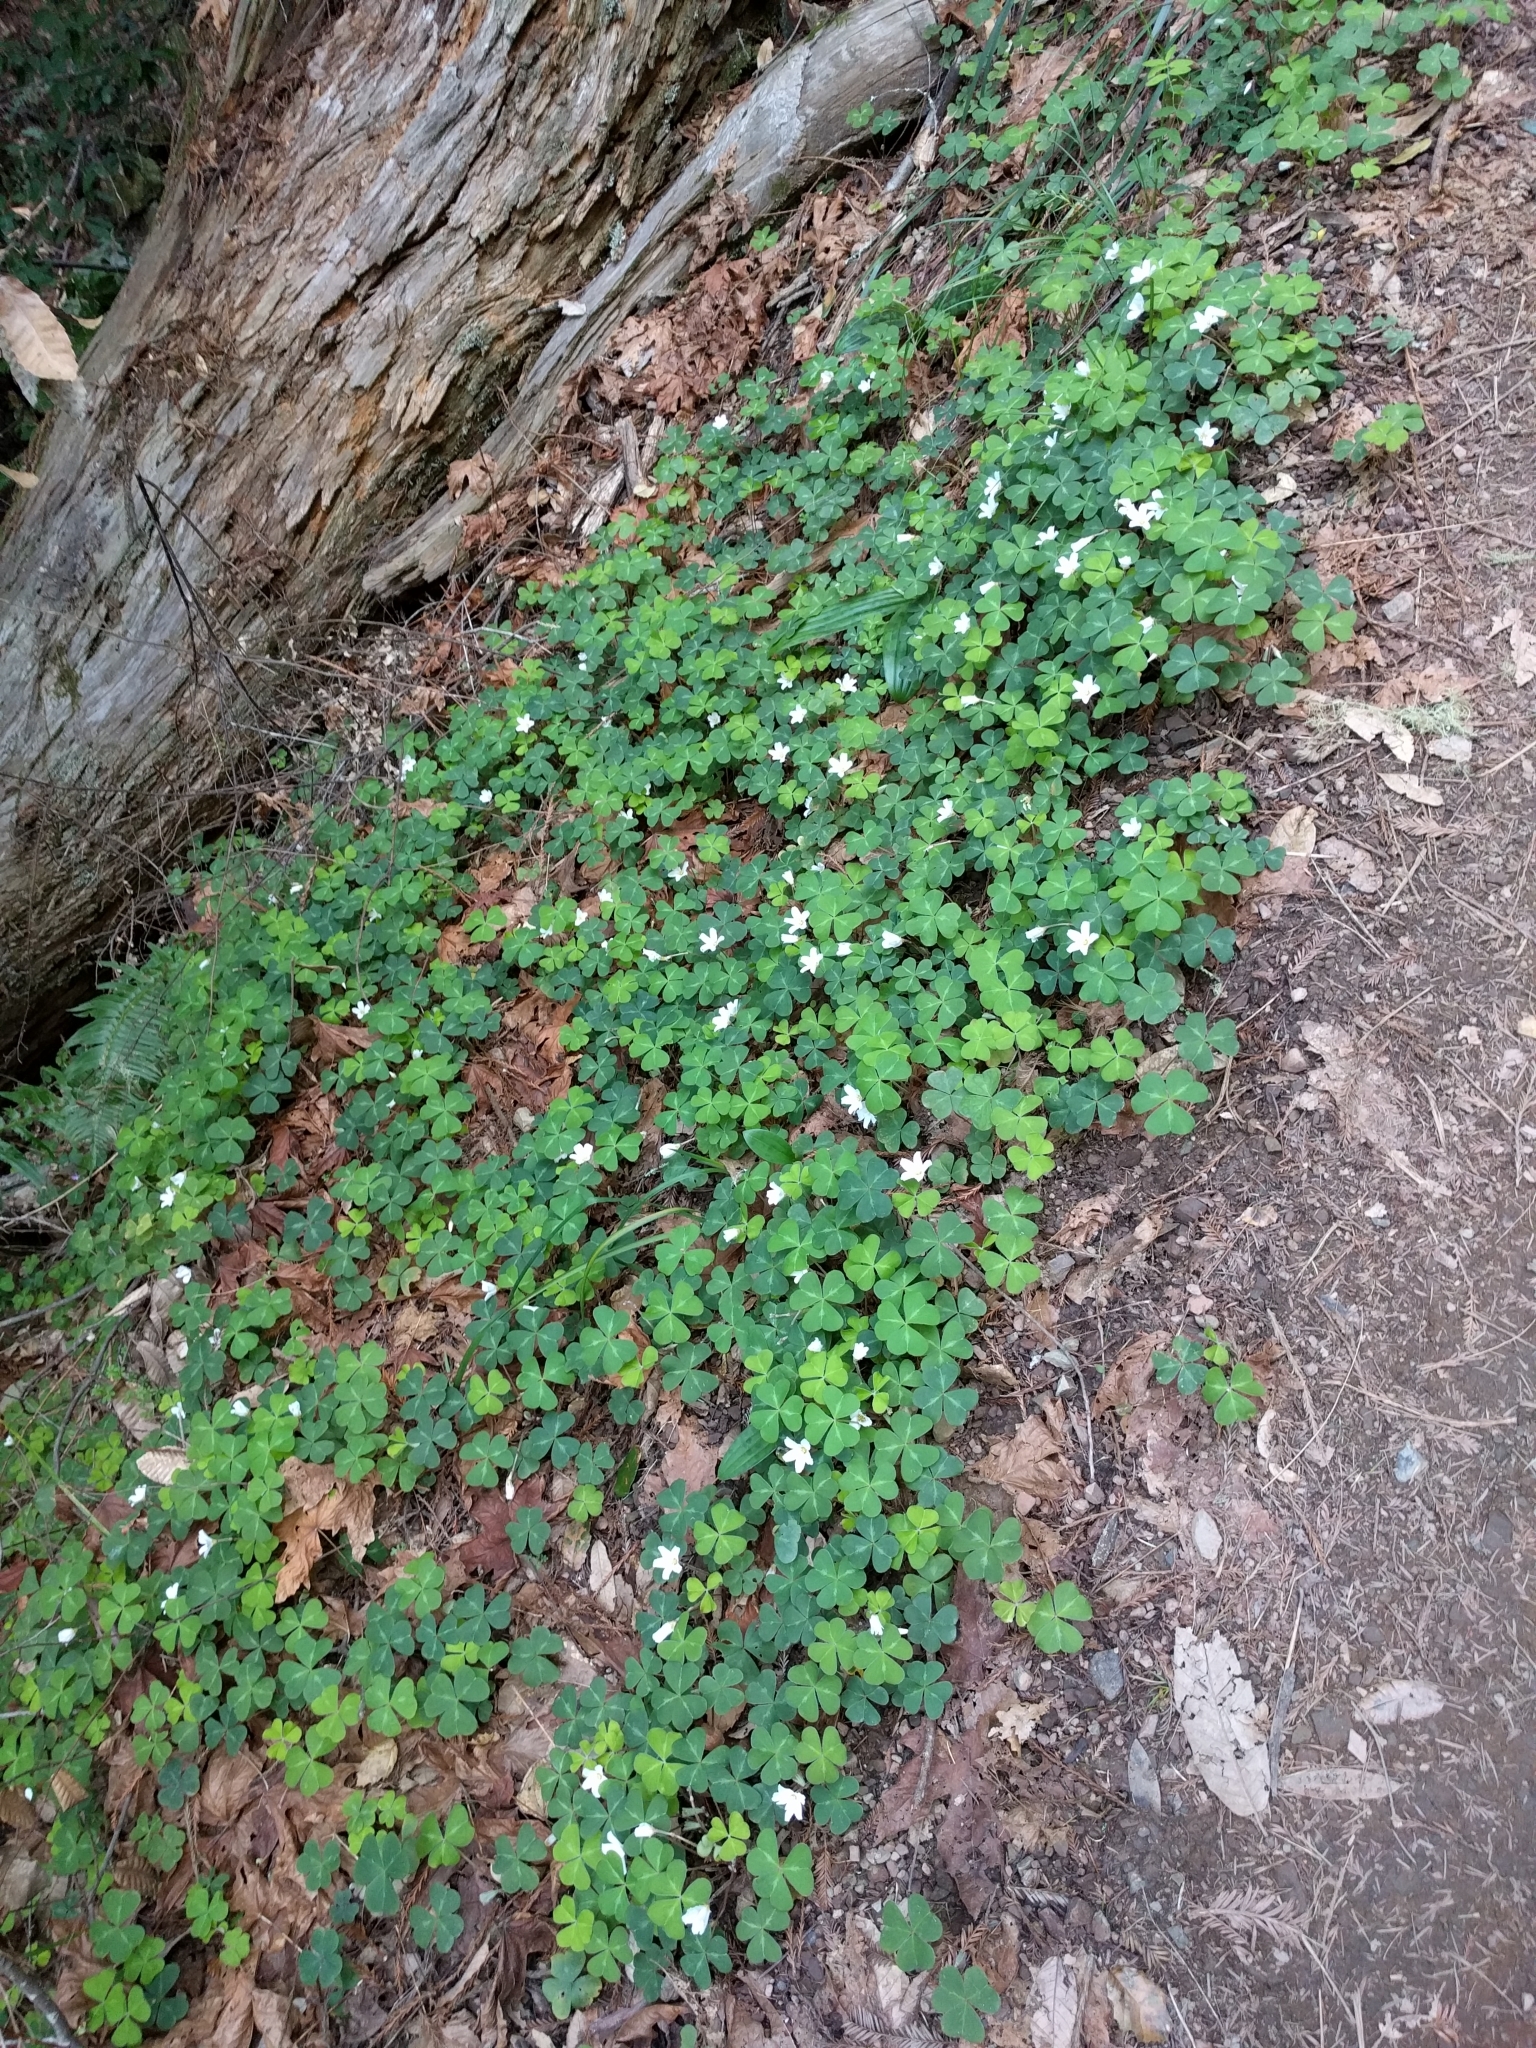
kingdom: Plantae
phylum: Tracheophyta
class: Magnoliopsida
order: Oxalidales
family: Oxalidaceae
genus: Oxalis
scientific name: Oxalis oregana
